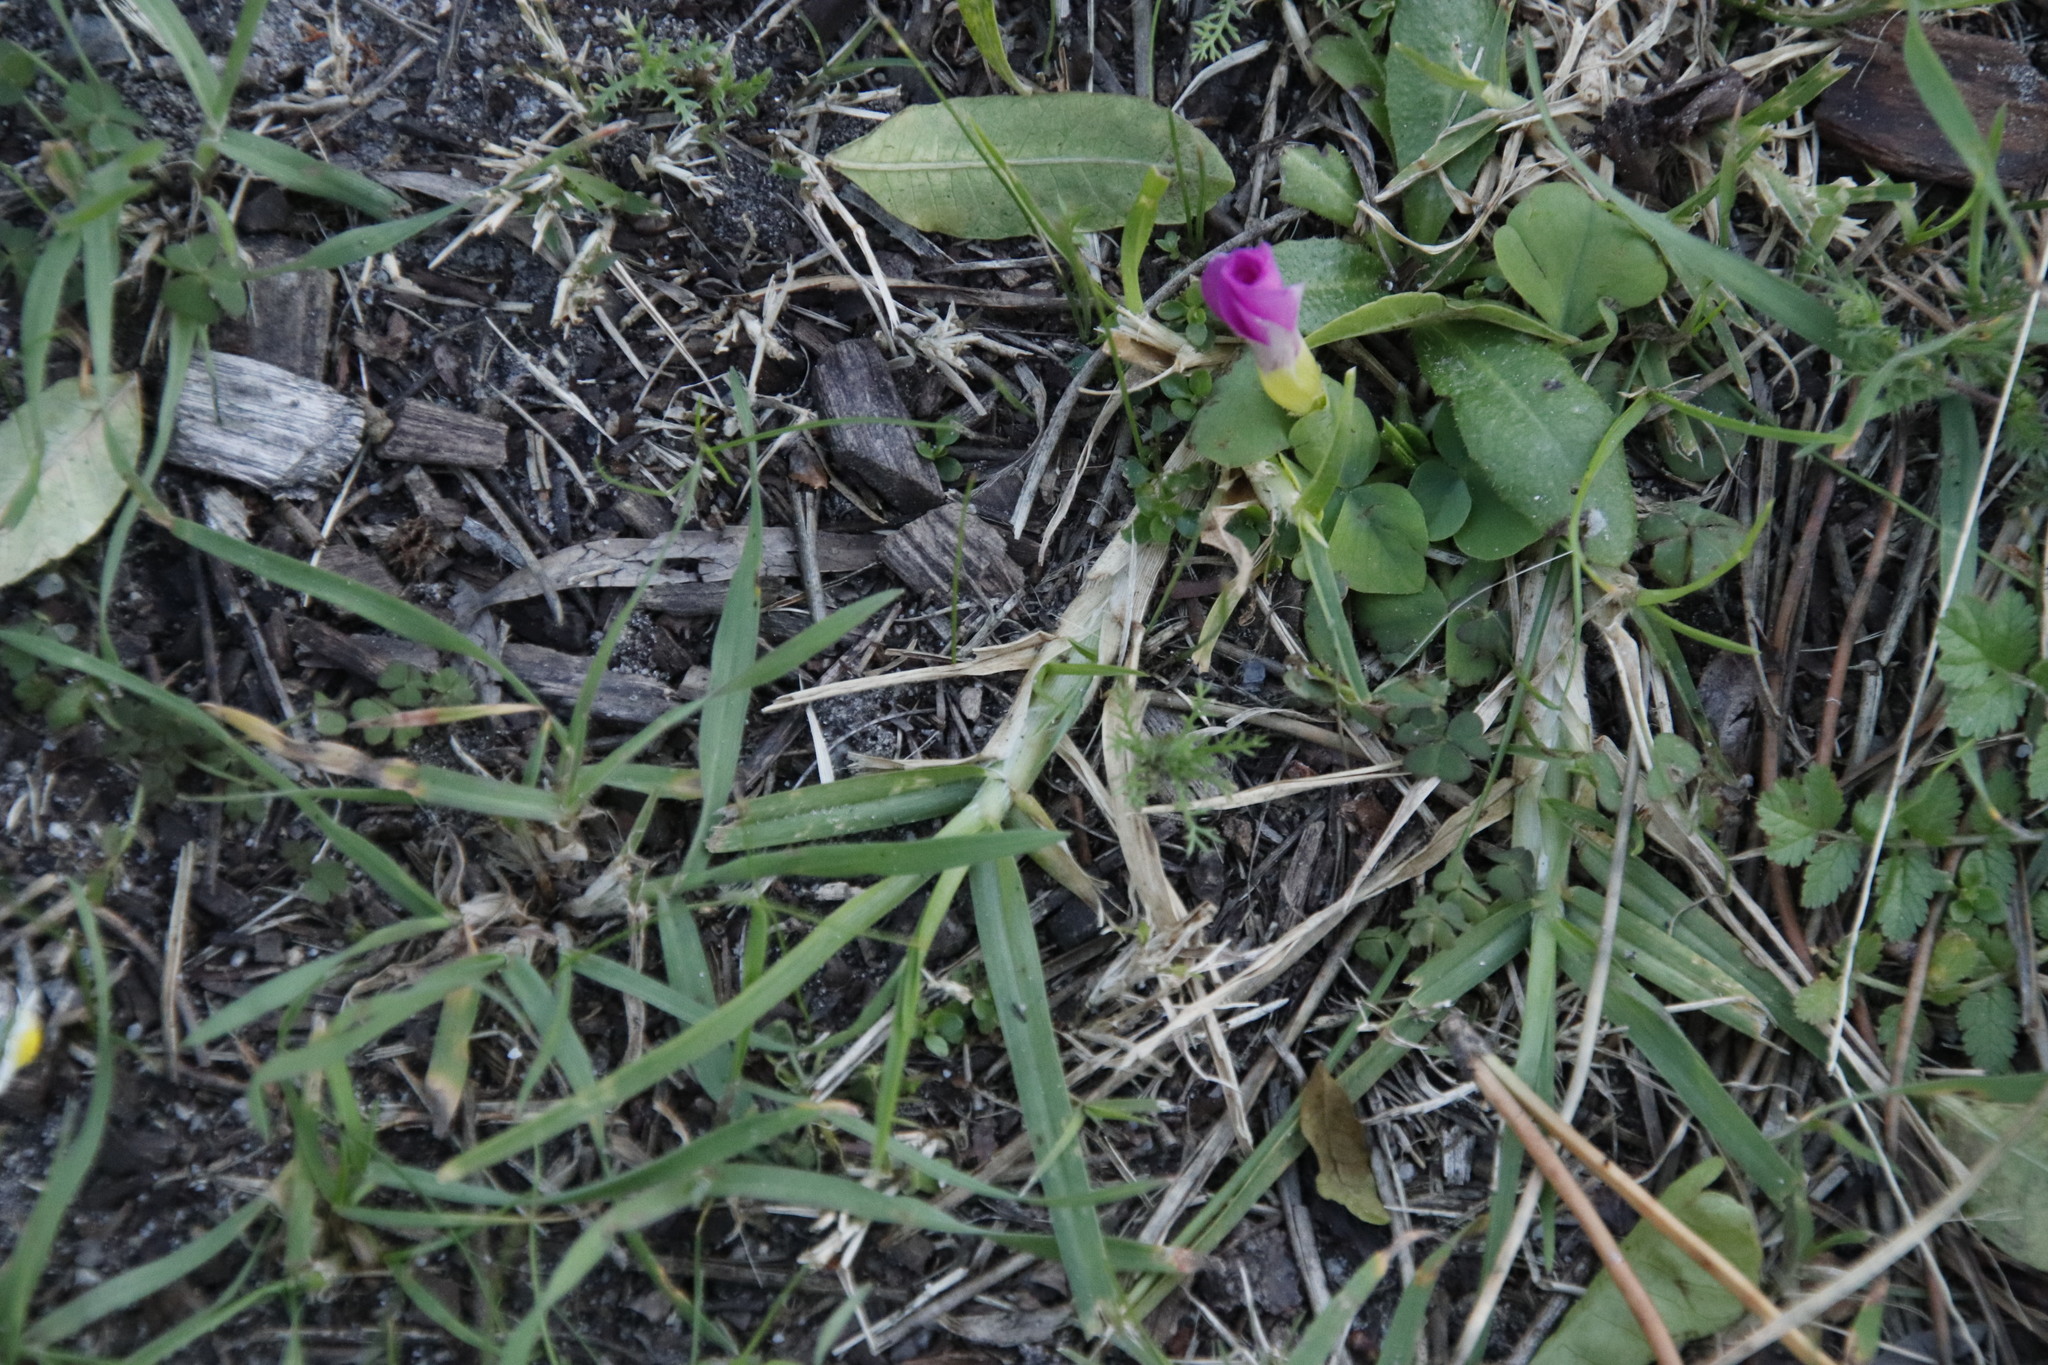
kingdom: Plantae
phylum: Tracheophyta
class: Liliopsida
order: Poales
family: Poaceae
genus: Cenchrus
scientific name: Cenchrus clandestinus
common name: Kikuyugrass
